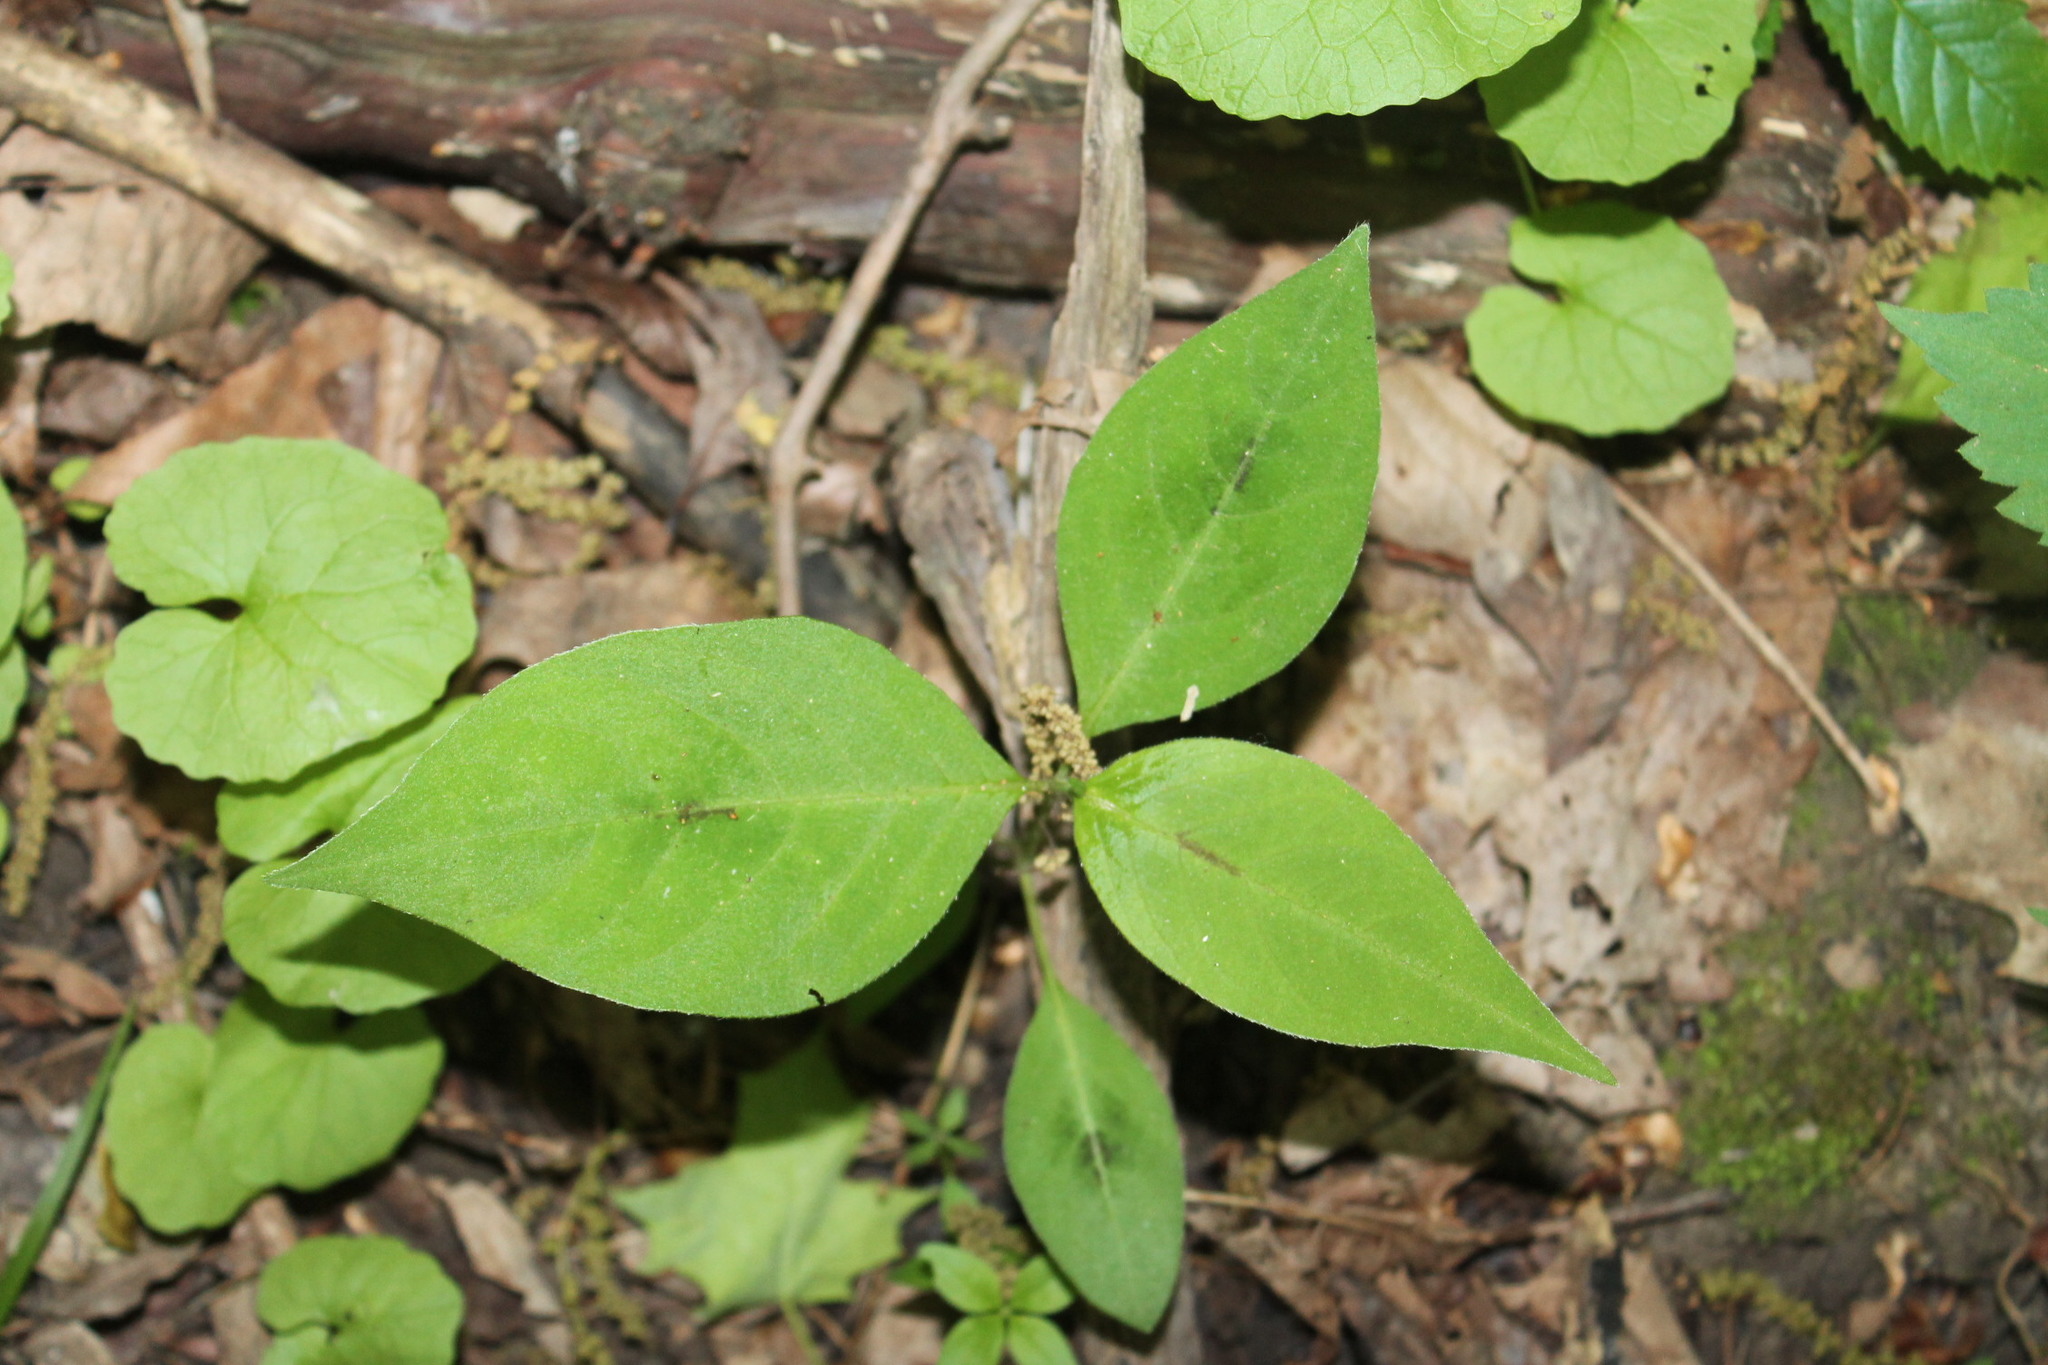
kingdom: Plantae
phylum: Tracheophyta
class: Magnoliopsida
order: Caryophyllales
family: Polygonaceae
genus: Persicaria
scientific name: Persicaria virginiana
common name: Jumpseed
